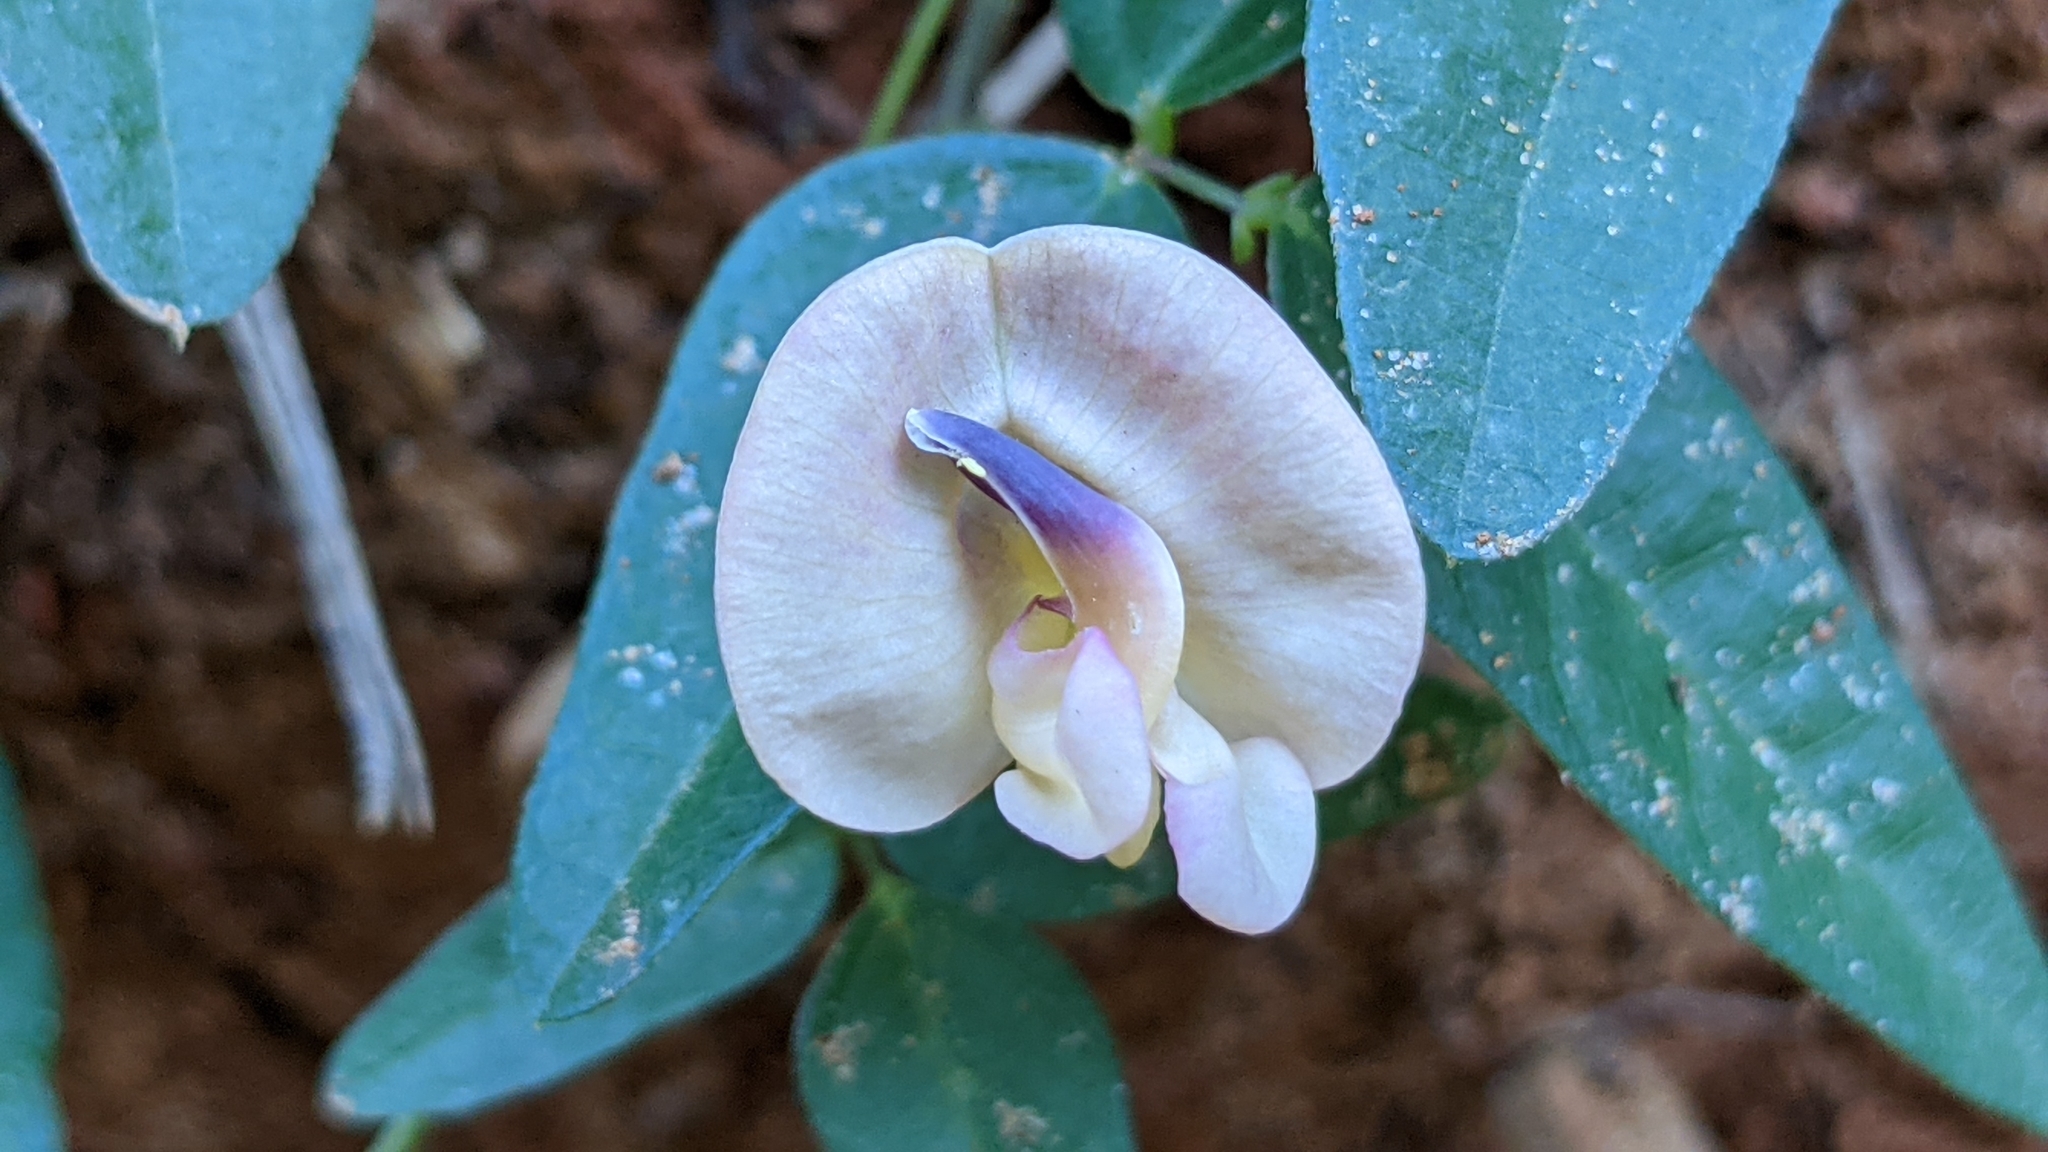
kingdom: Plantae
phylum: Tracheophyta
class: Magnoliopsida
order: Fabales
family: Fabaceae
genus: Strophostyles
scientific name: Strophostyles umbellata
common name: Perennial wild bean
